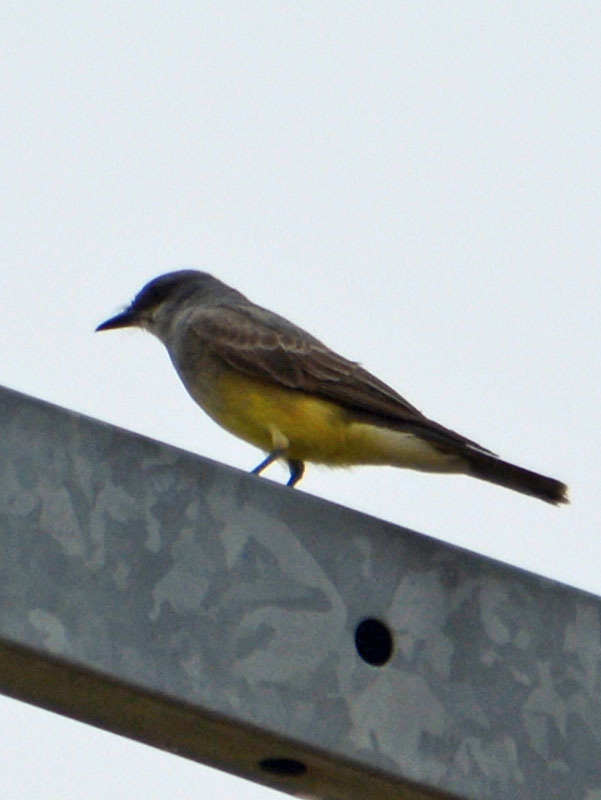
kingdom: Animalia
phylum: Chordata
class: Aves
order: Passeriformes
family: Tyrannidae
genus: Tyrannus
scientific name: Tyrannus vociferans
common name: Cassin's kingbird
